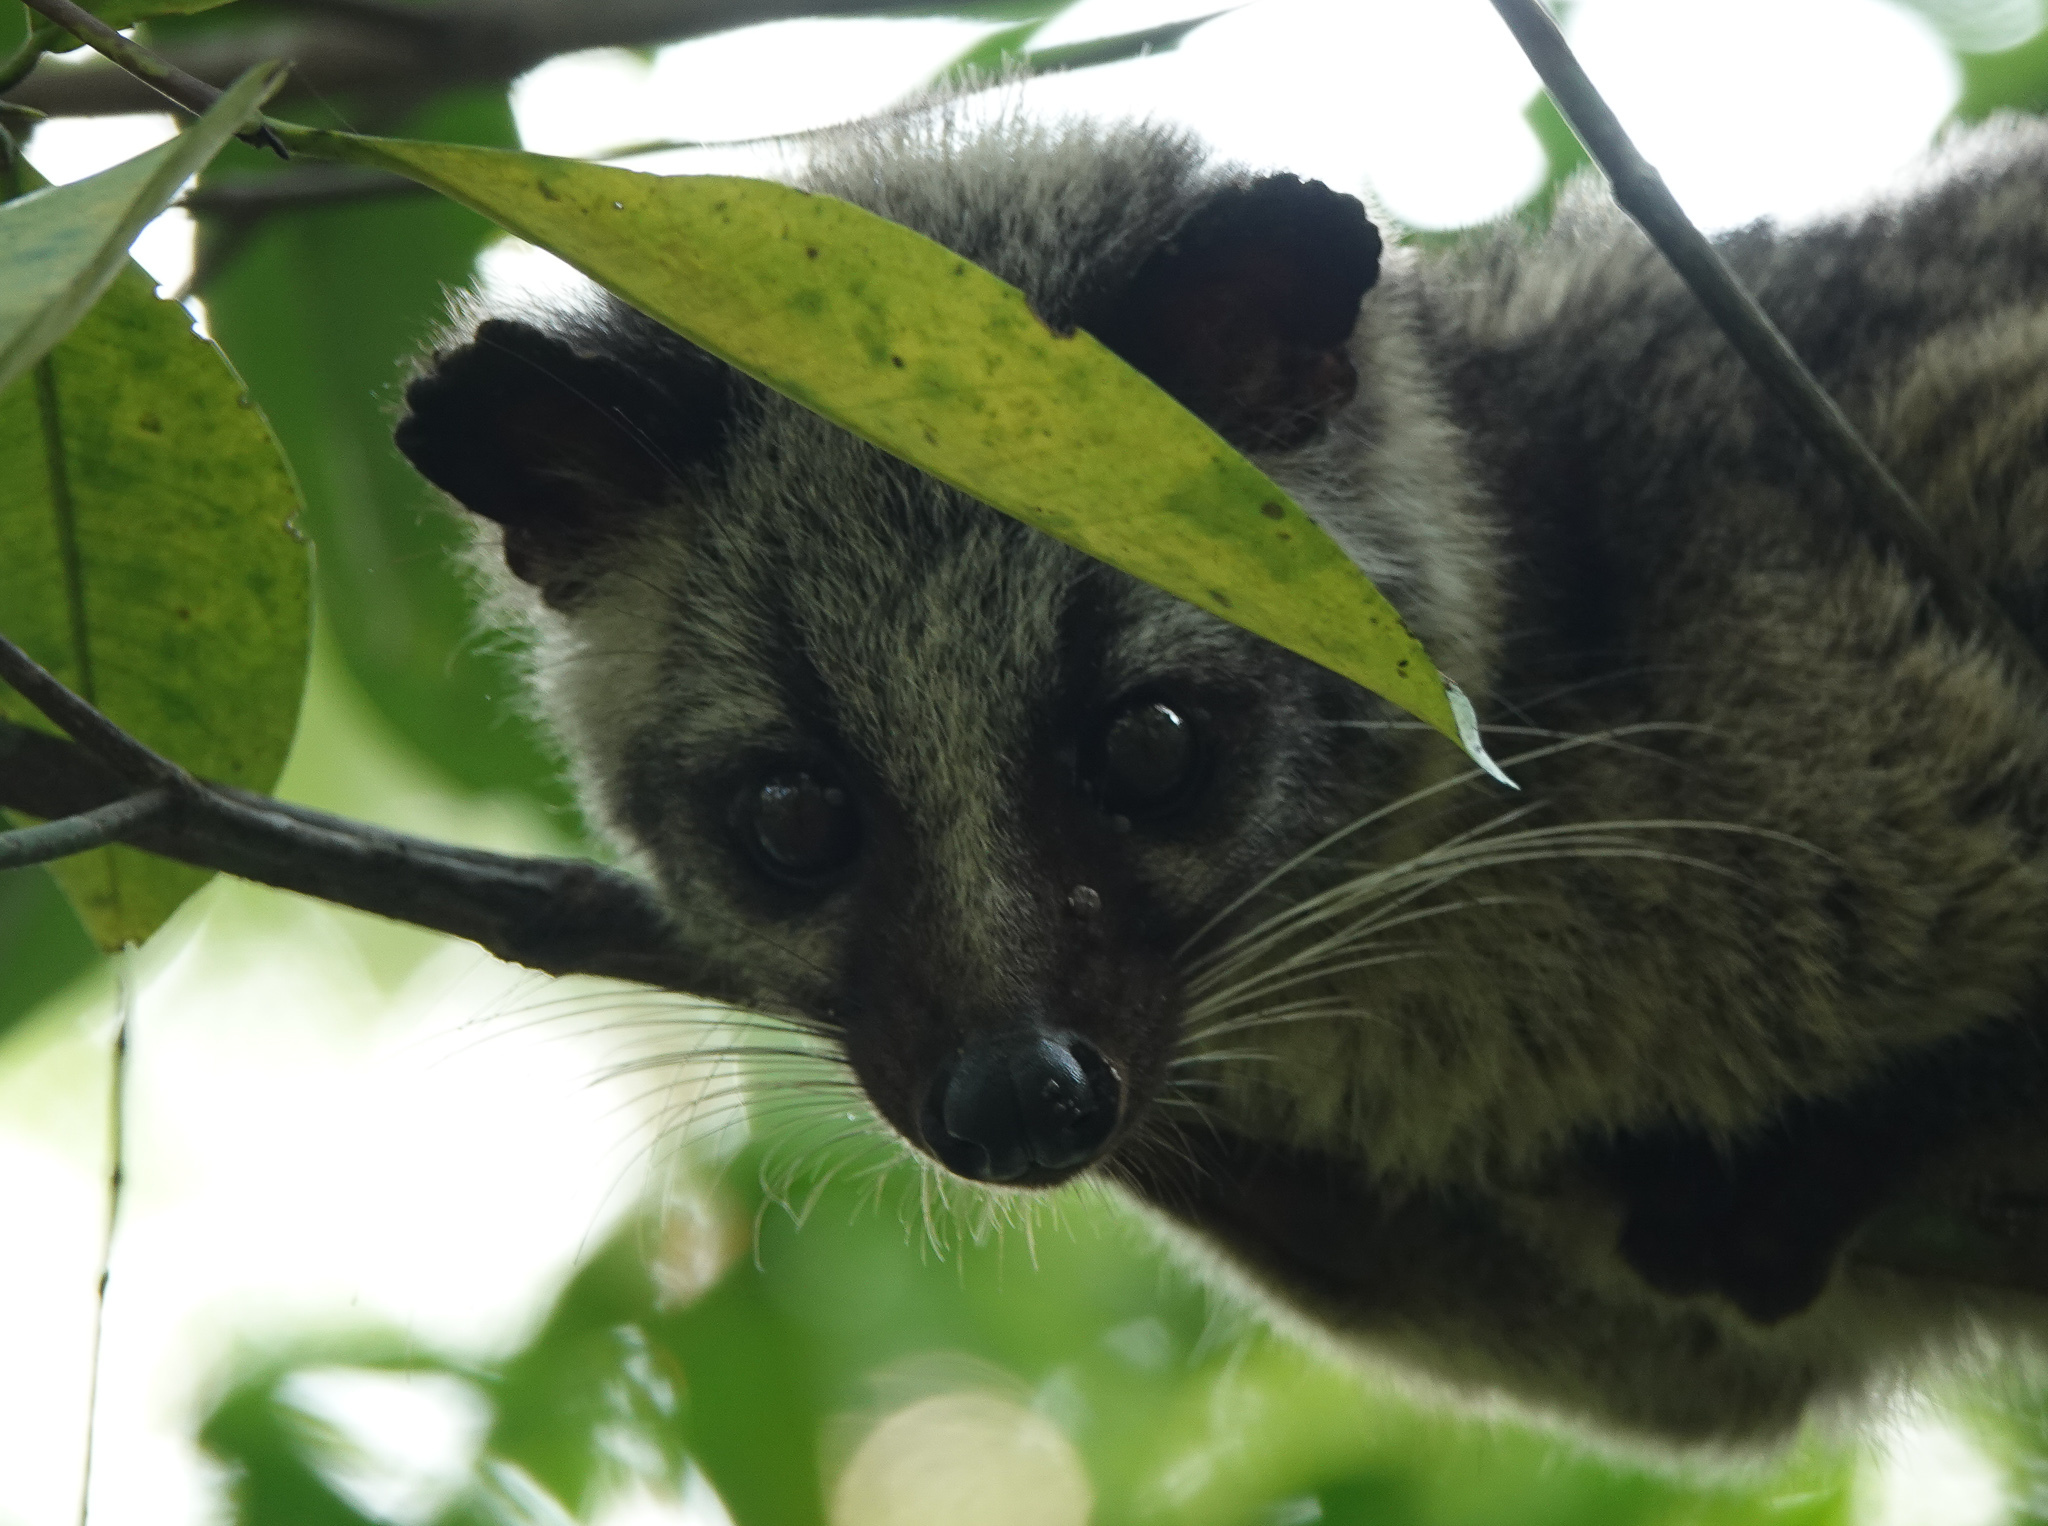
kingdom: Animalia
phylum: Chordata
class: Mammalia
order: Carnivora
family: Viverridae
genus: Paguma
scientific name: Paguma larvata
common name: Masked palm civet
